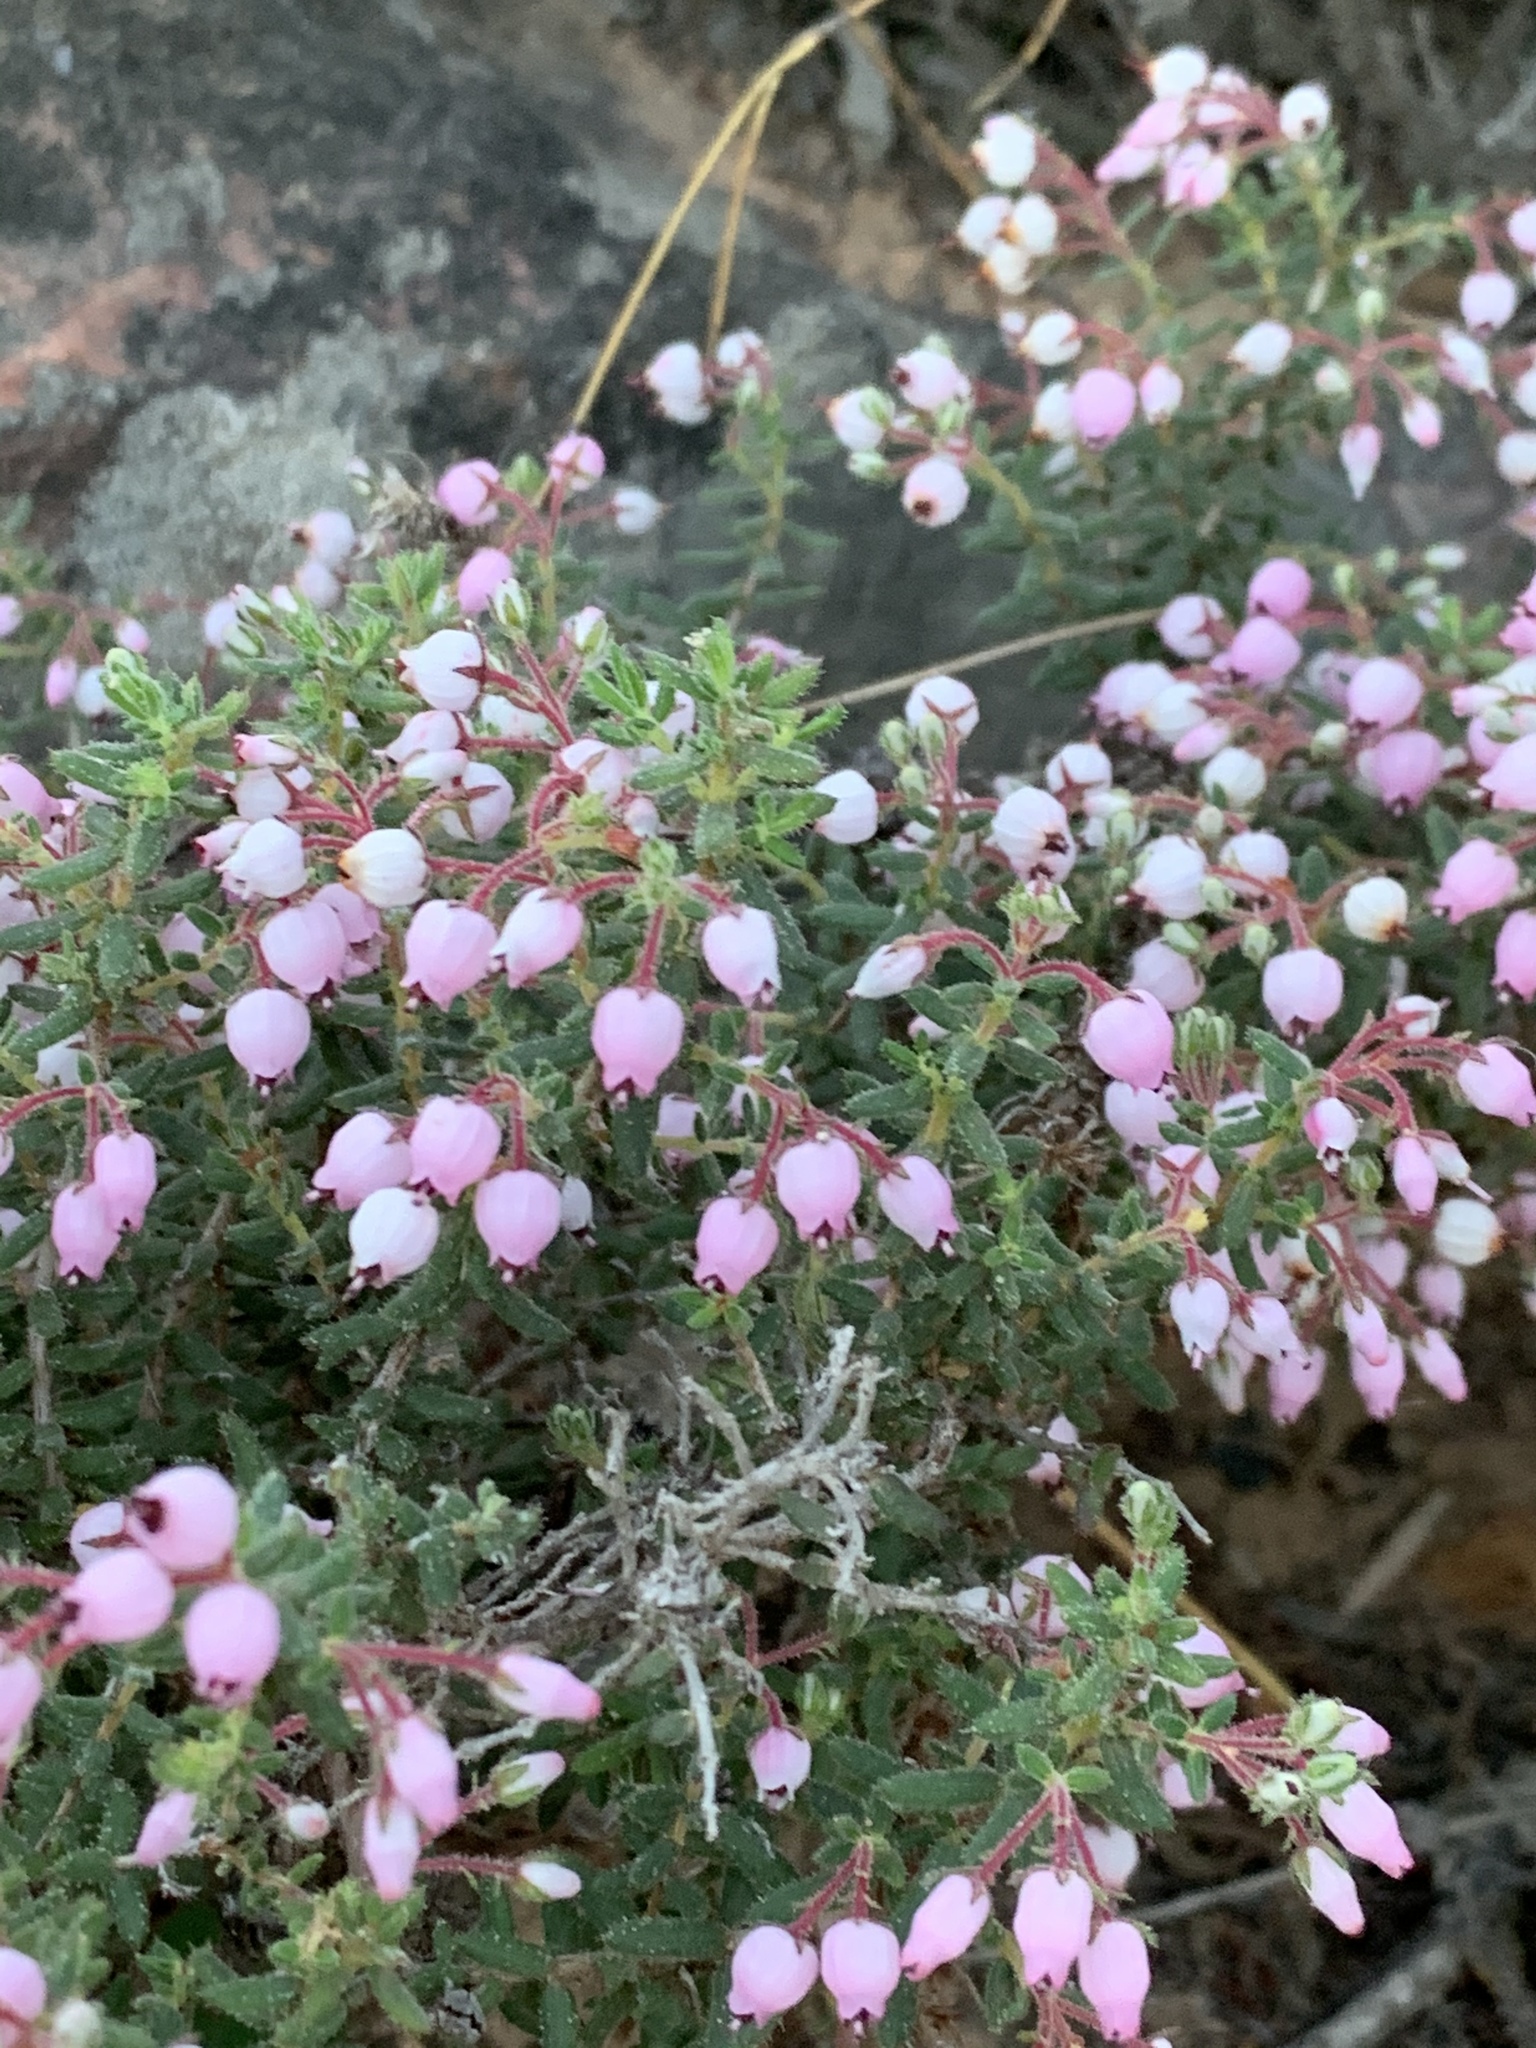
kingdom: Plantae
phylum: Tracheophyta
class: Magnoliopsida
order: Ericales
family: Ericaceae
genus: Erica
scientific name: Erica hirta
